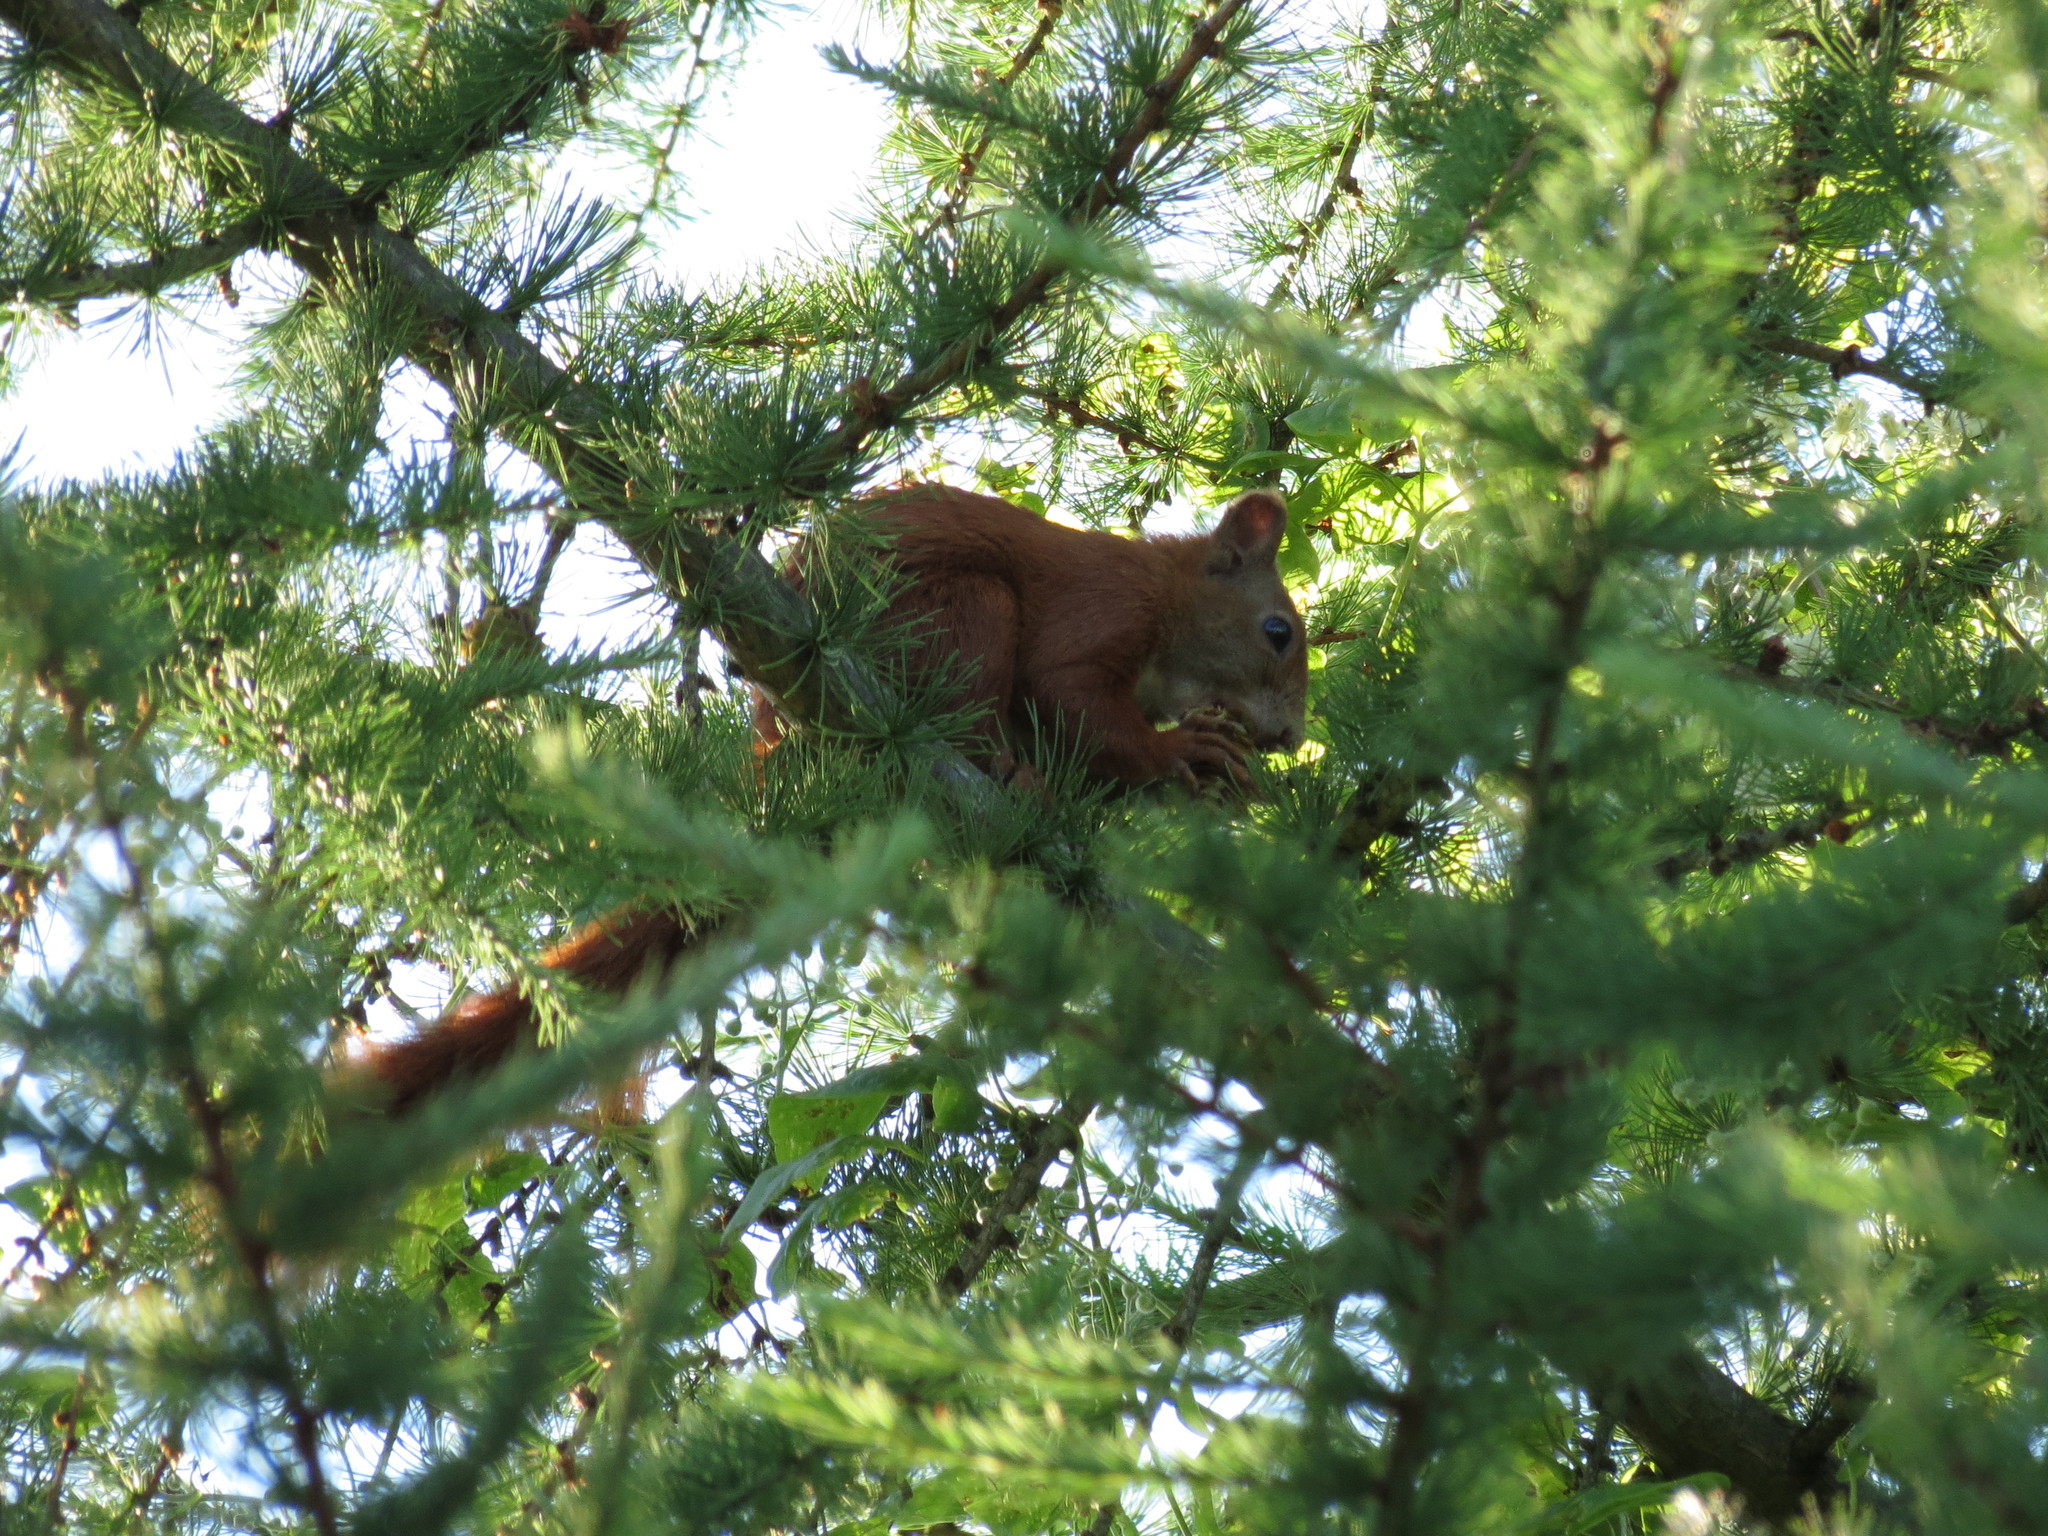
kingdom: Animalia
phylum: Chordata
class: Mammalia
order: Rodentia
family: Sciuridae
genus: Sciurus
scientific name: Sciurus vulgaris
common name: Eurasian red squirrel
